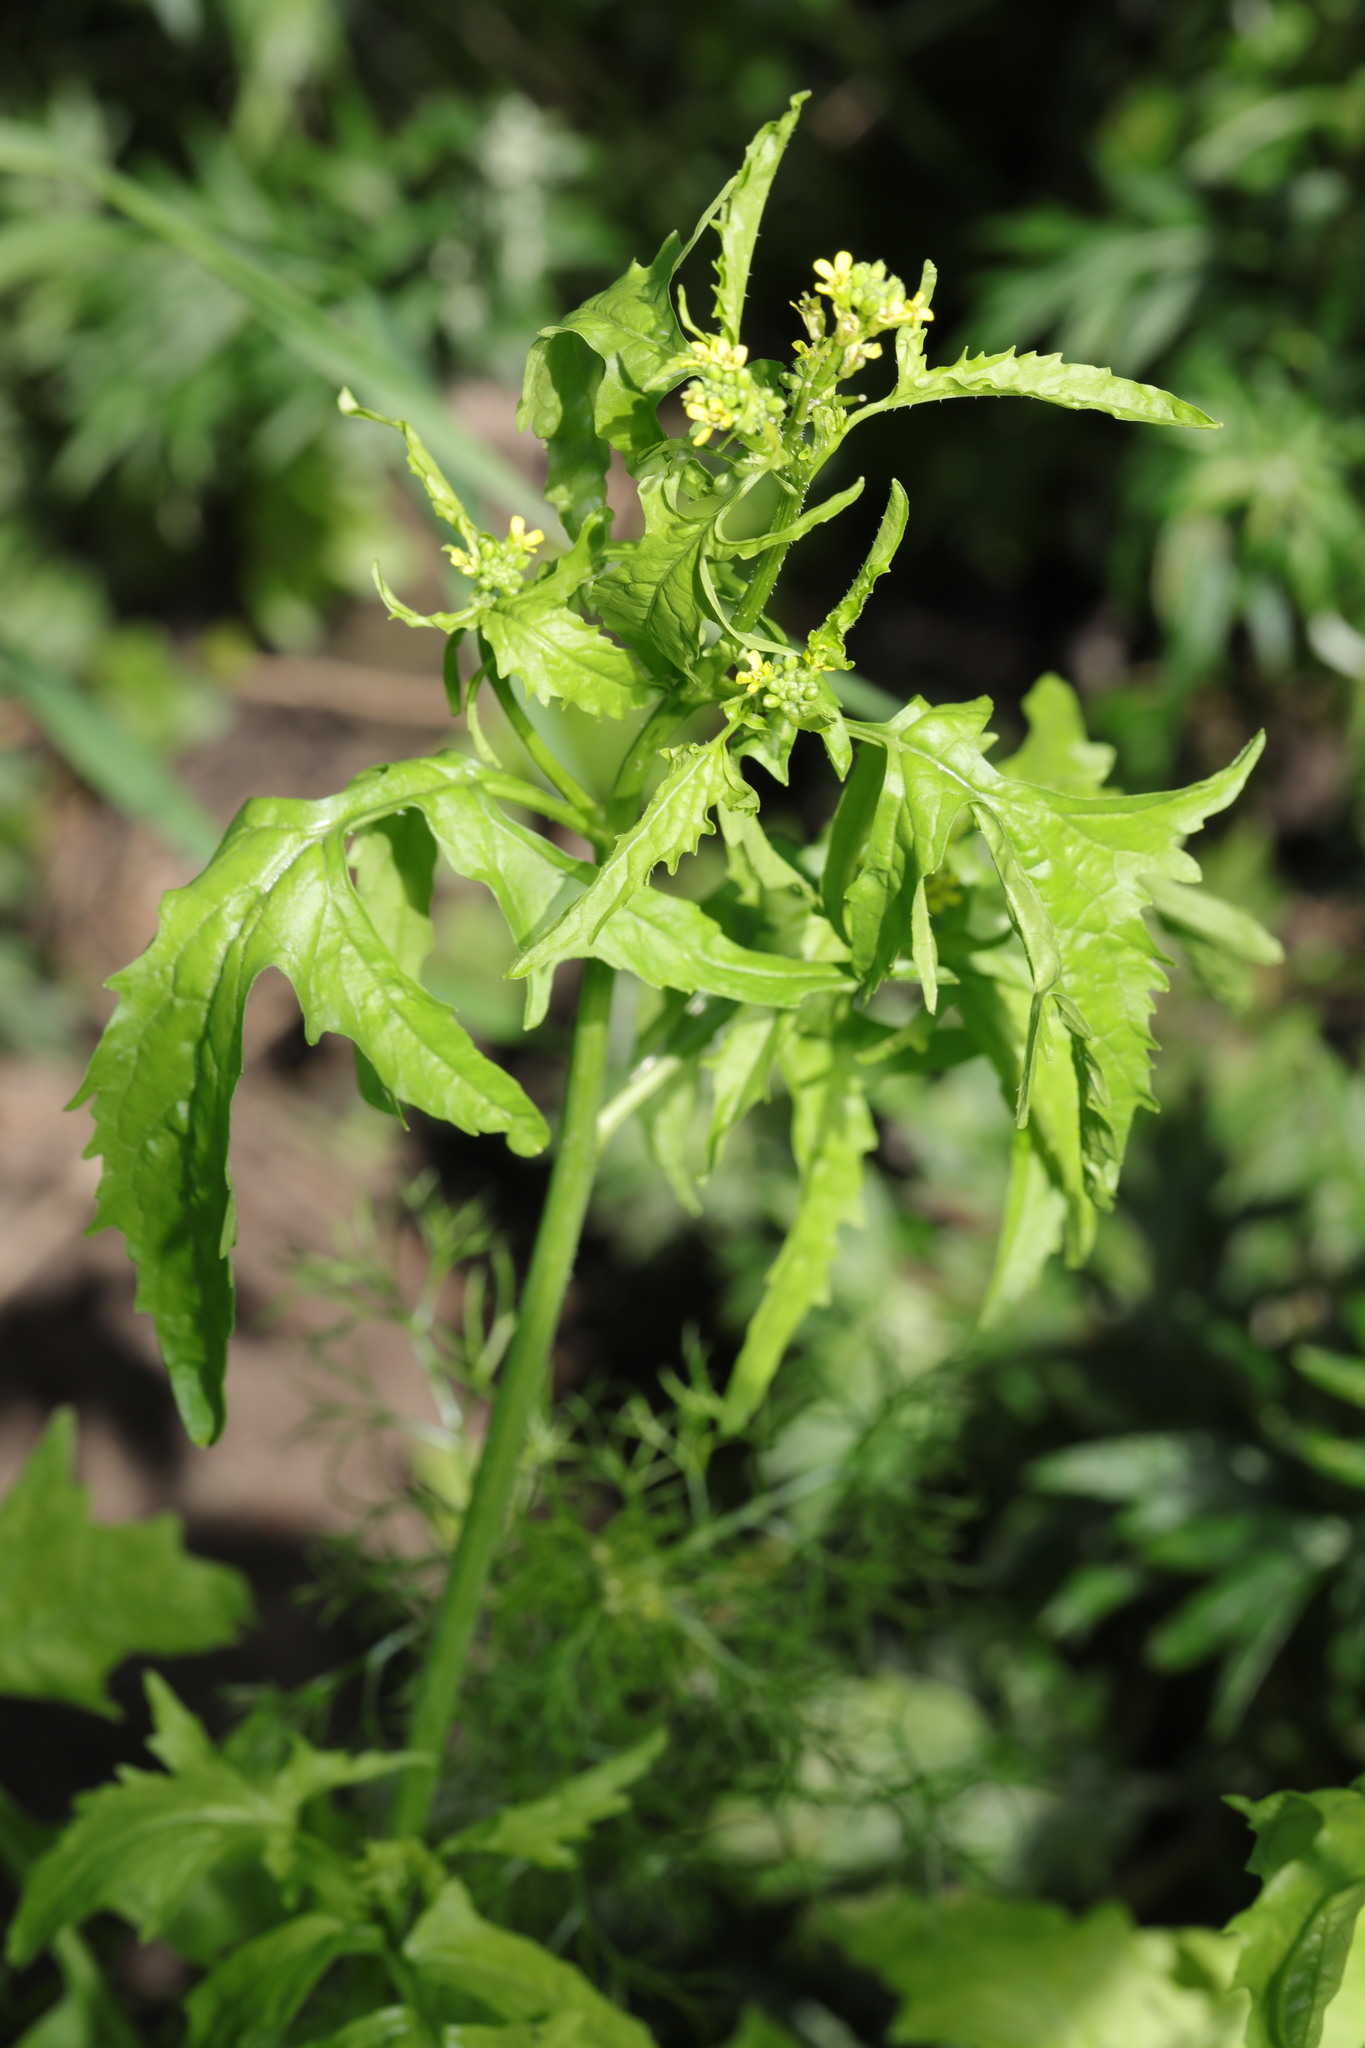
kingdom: Plantae
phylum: Tracheophyta
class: Magnoliopsida
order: Brassicales
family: Brassicaceae
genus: Sisymbrium
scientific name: Sisymbrium officinale
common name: Hedge mustard
